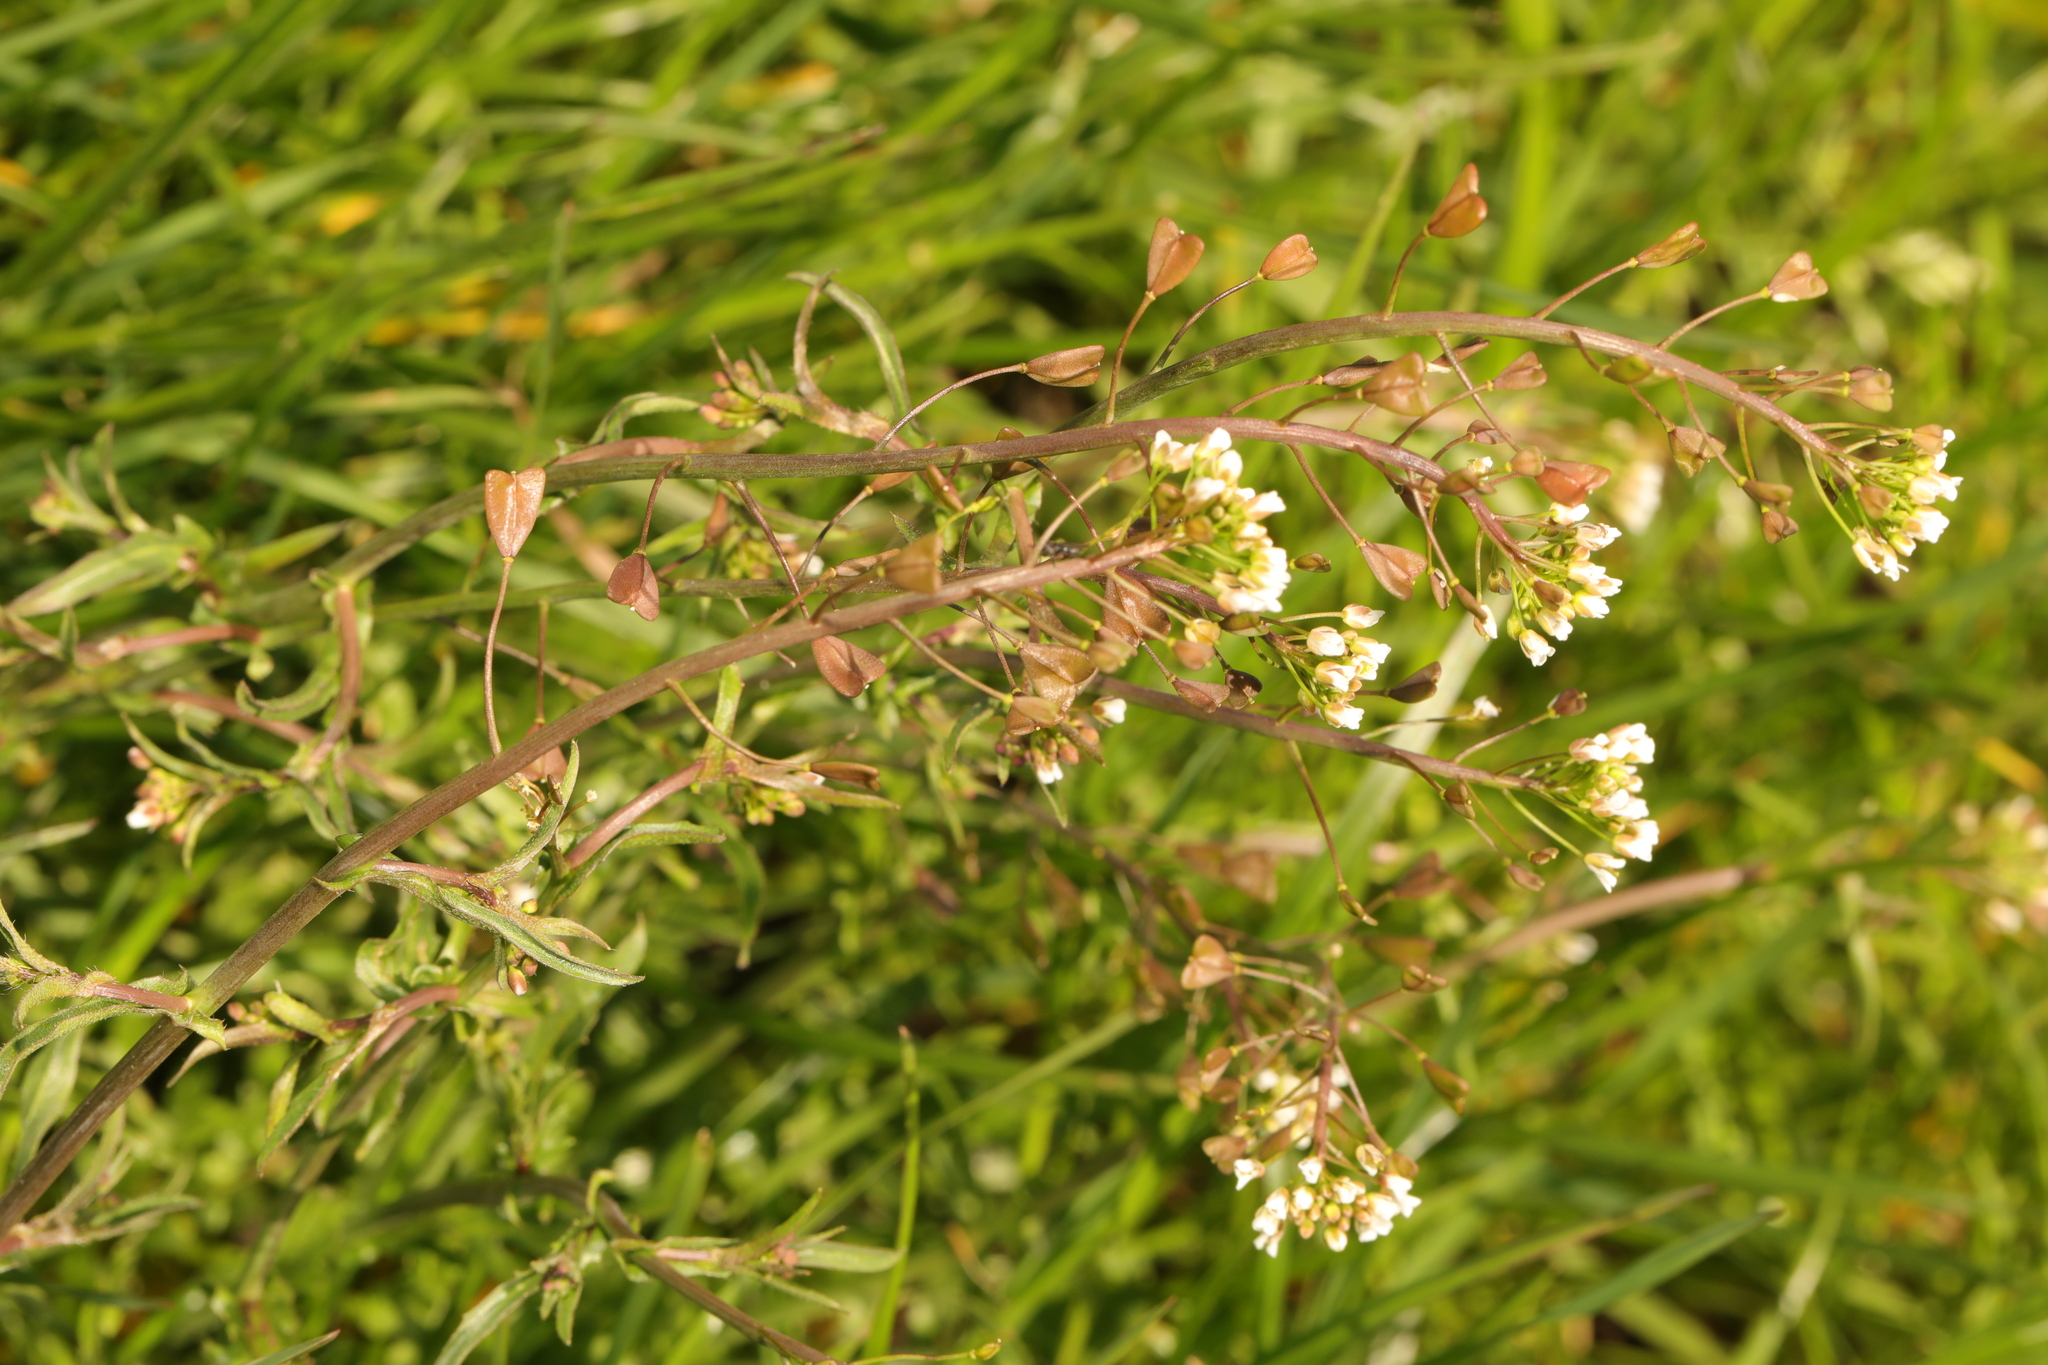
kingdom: Plantae
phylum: Tracheophyta
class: Magnoliopsida
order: Brassicales
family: Brassicaceae
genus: Capsella
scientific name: Capsella bursa-pastoris
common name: Shepherd's purse
